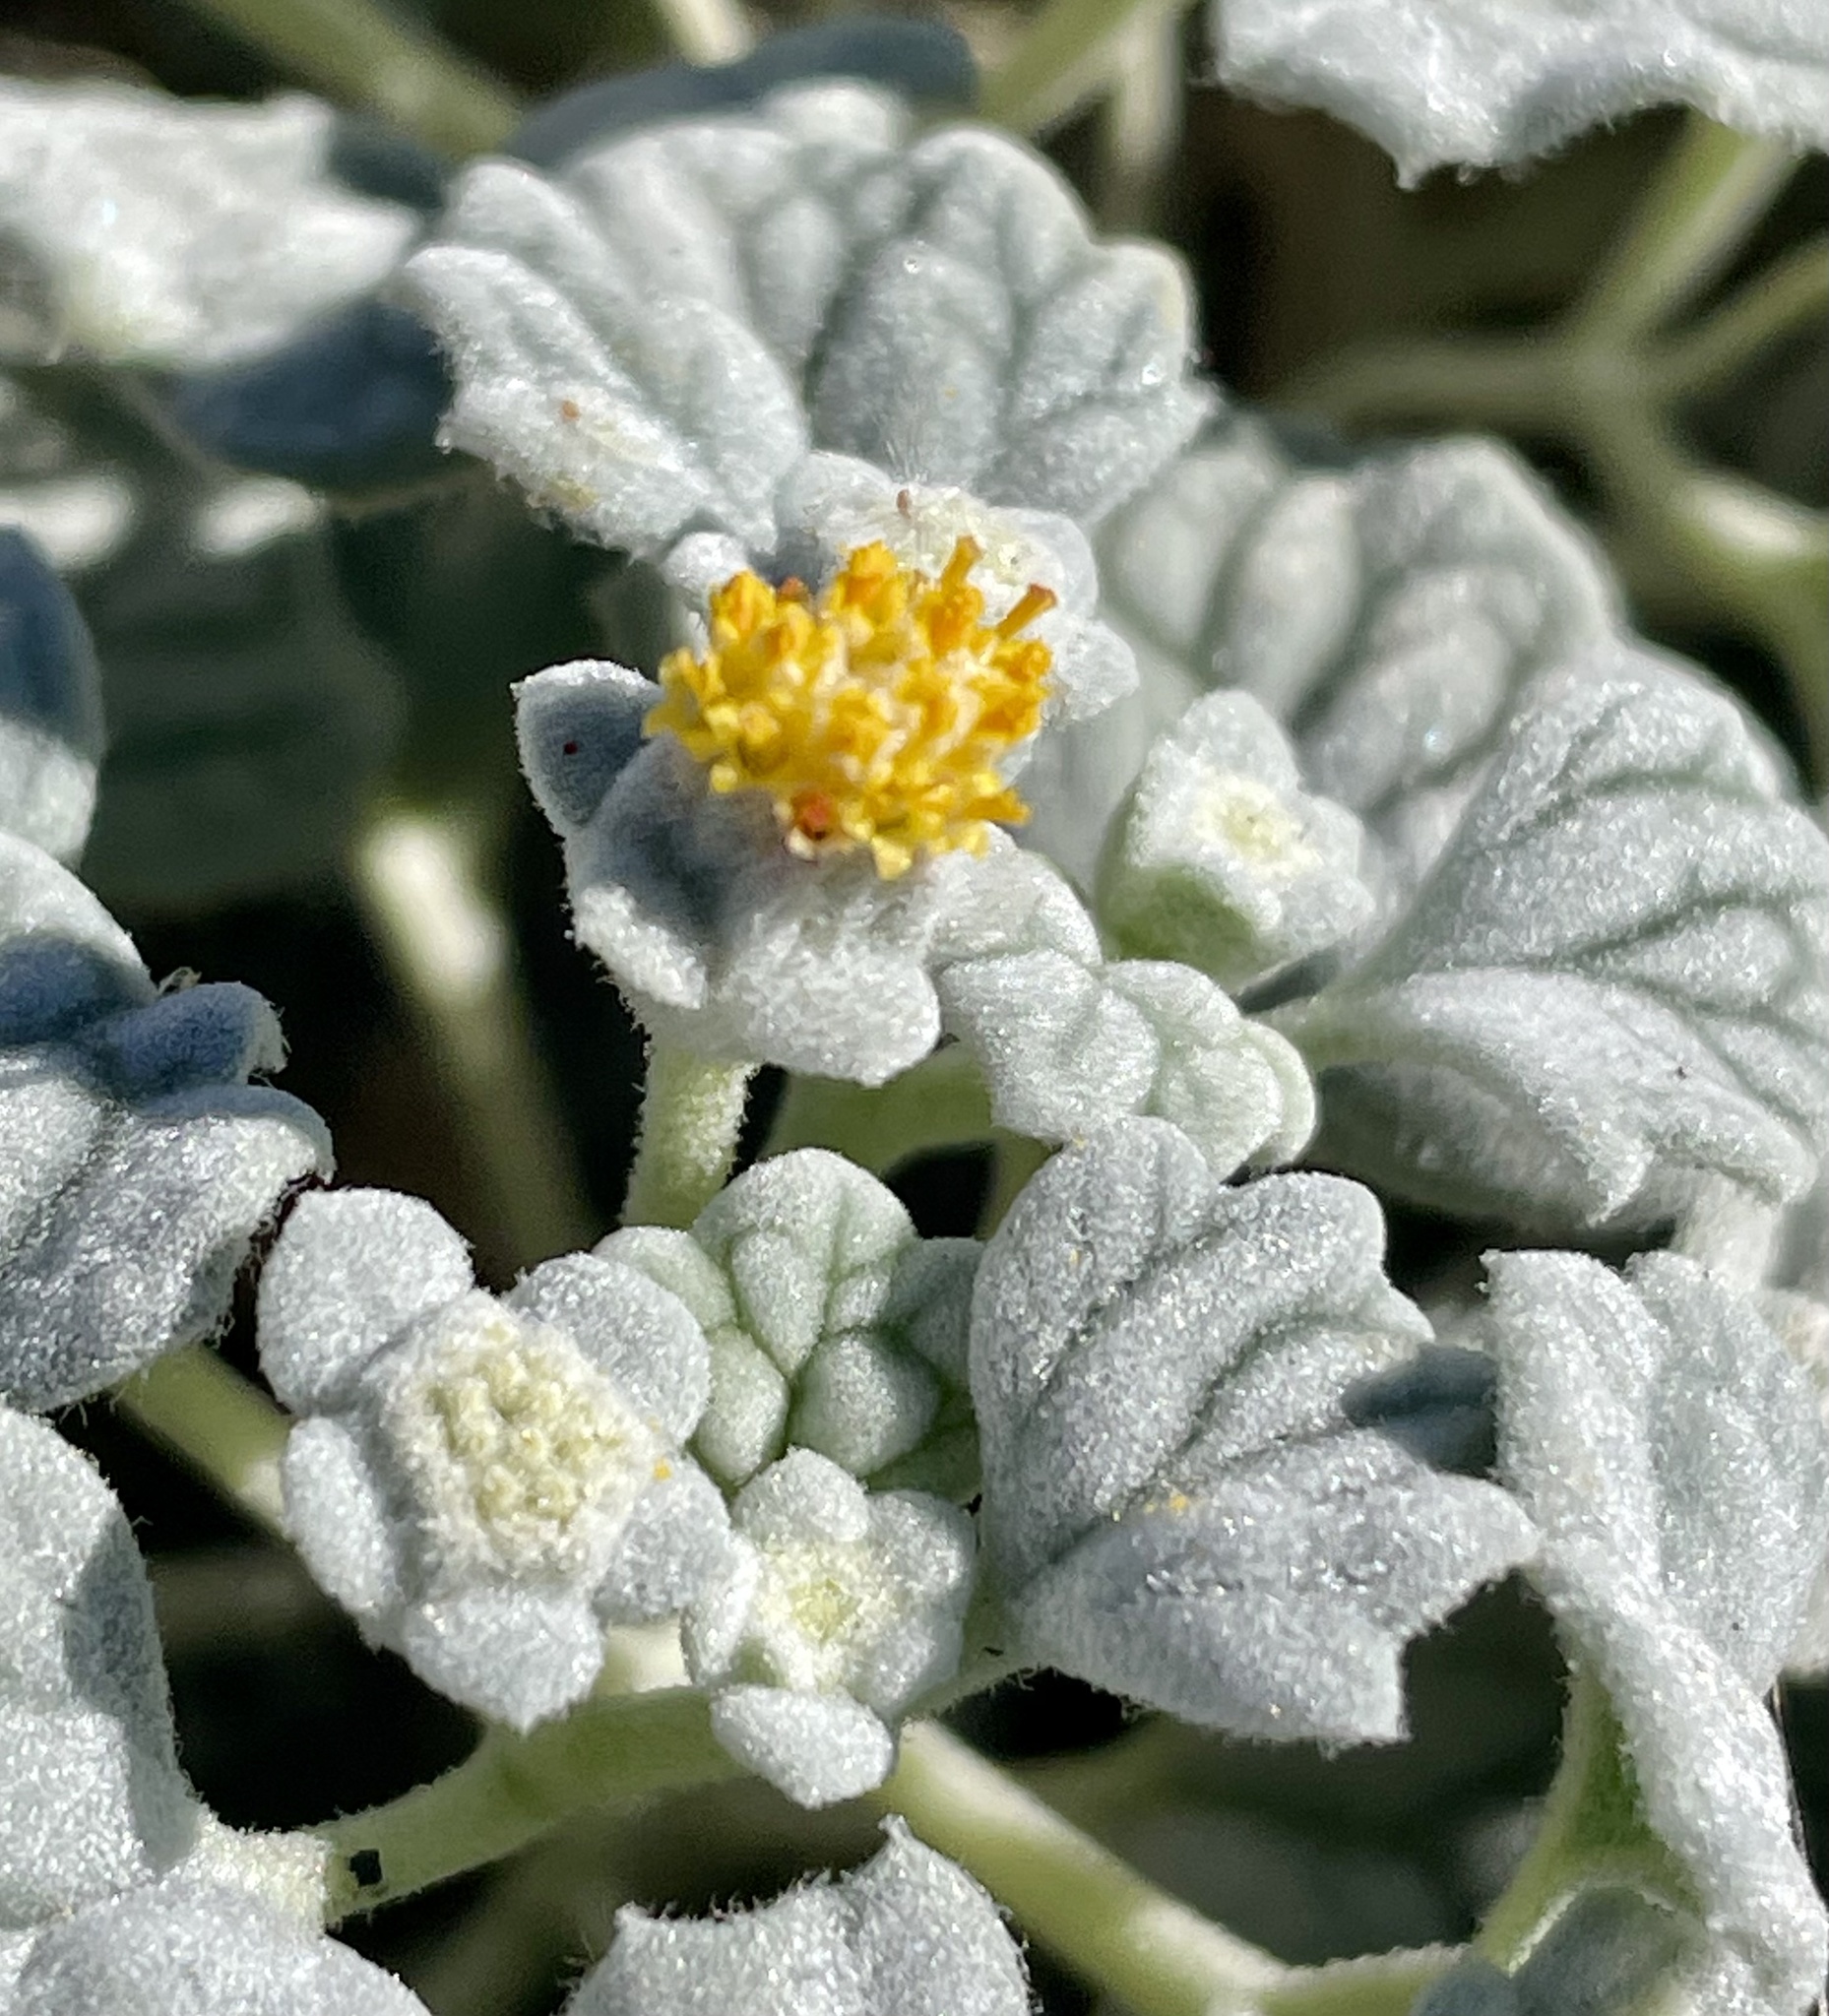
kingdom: Plantae
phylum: Tracheophyta
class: Magnoliopsida
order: Asterales
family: Asteraceae
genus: Psathyrotes
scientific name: Psathyrotes ramosissima
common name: Turtleback
